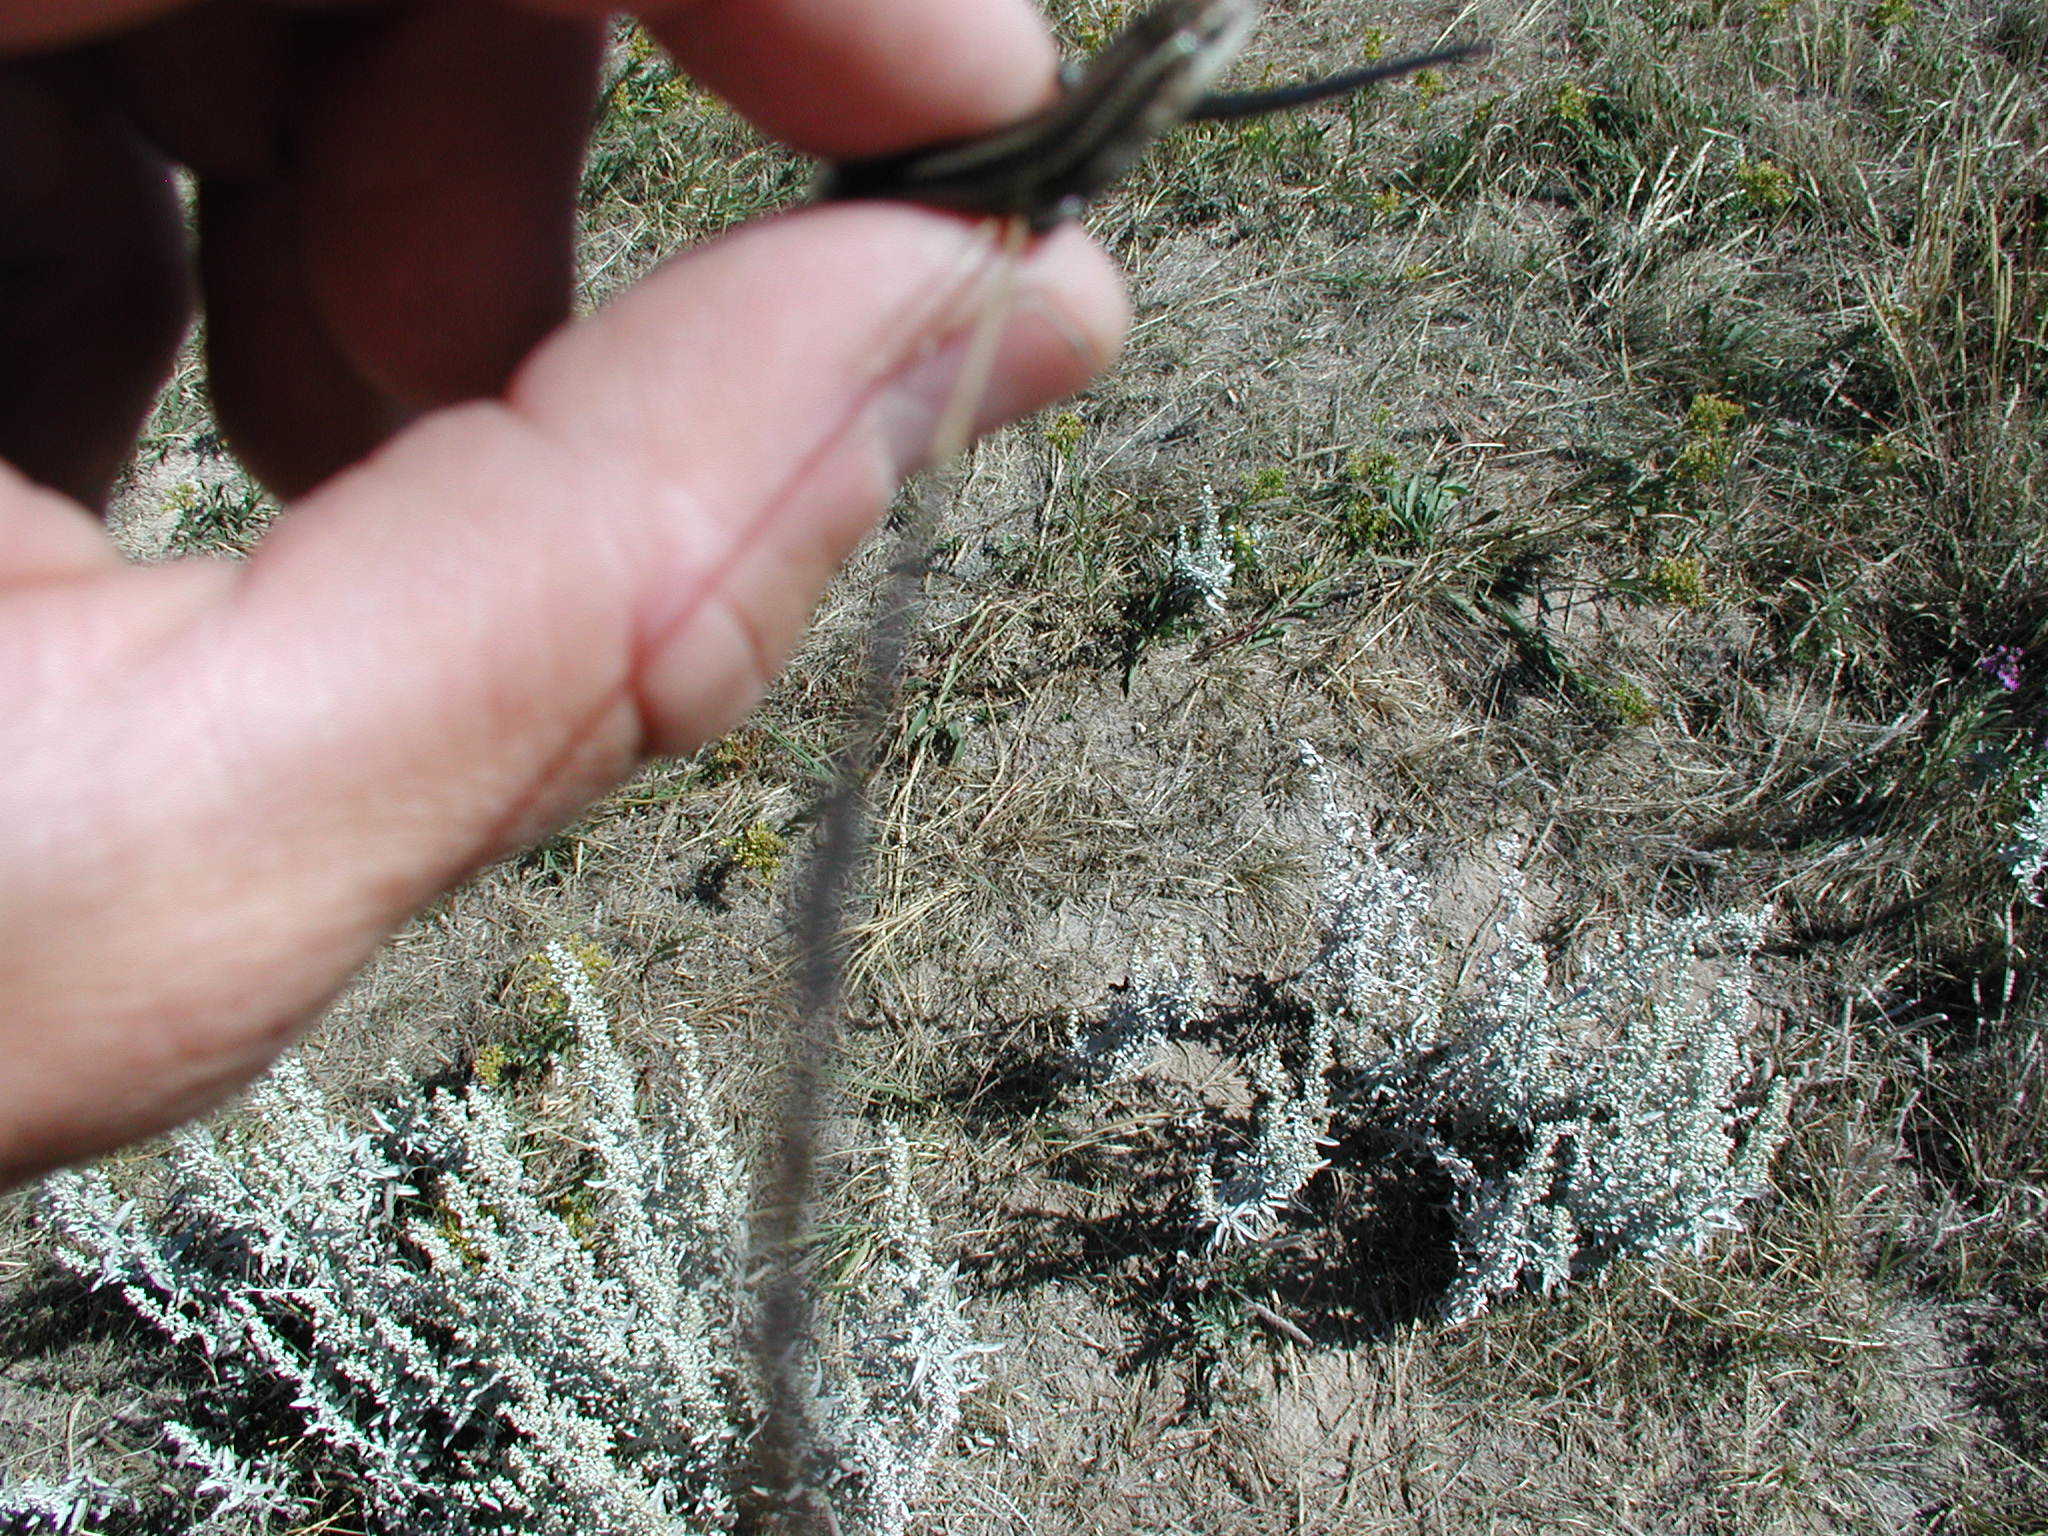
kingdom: Animalia
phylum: Chordata
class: Squamata
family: Scincidae
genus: Plestiodon
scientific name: Plestiodon multivirgatus
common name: Many-lined skink
